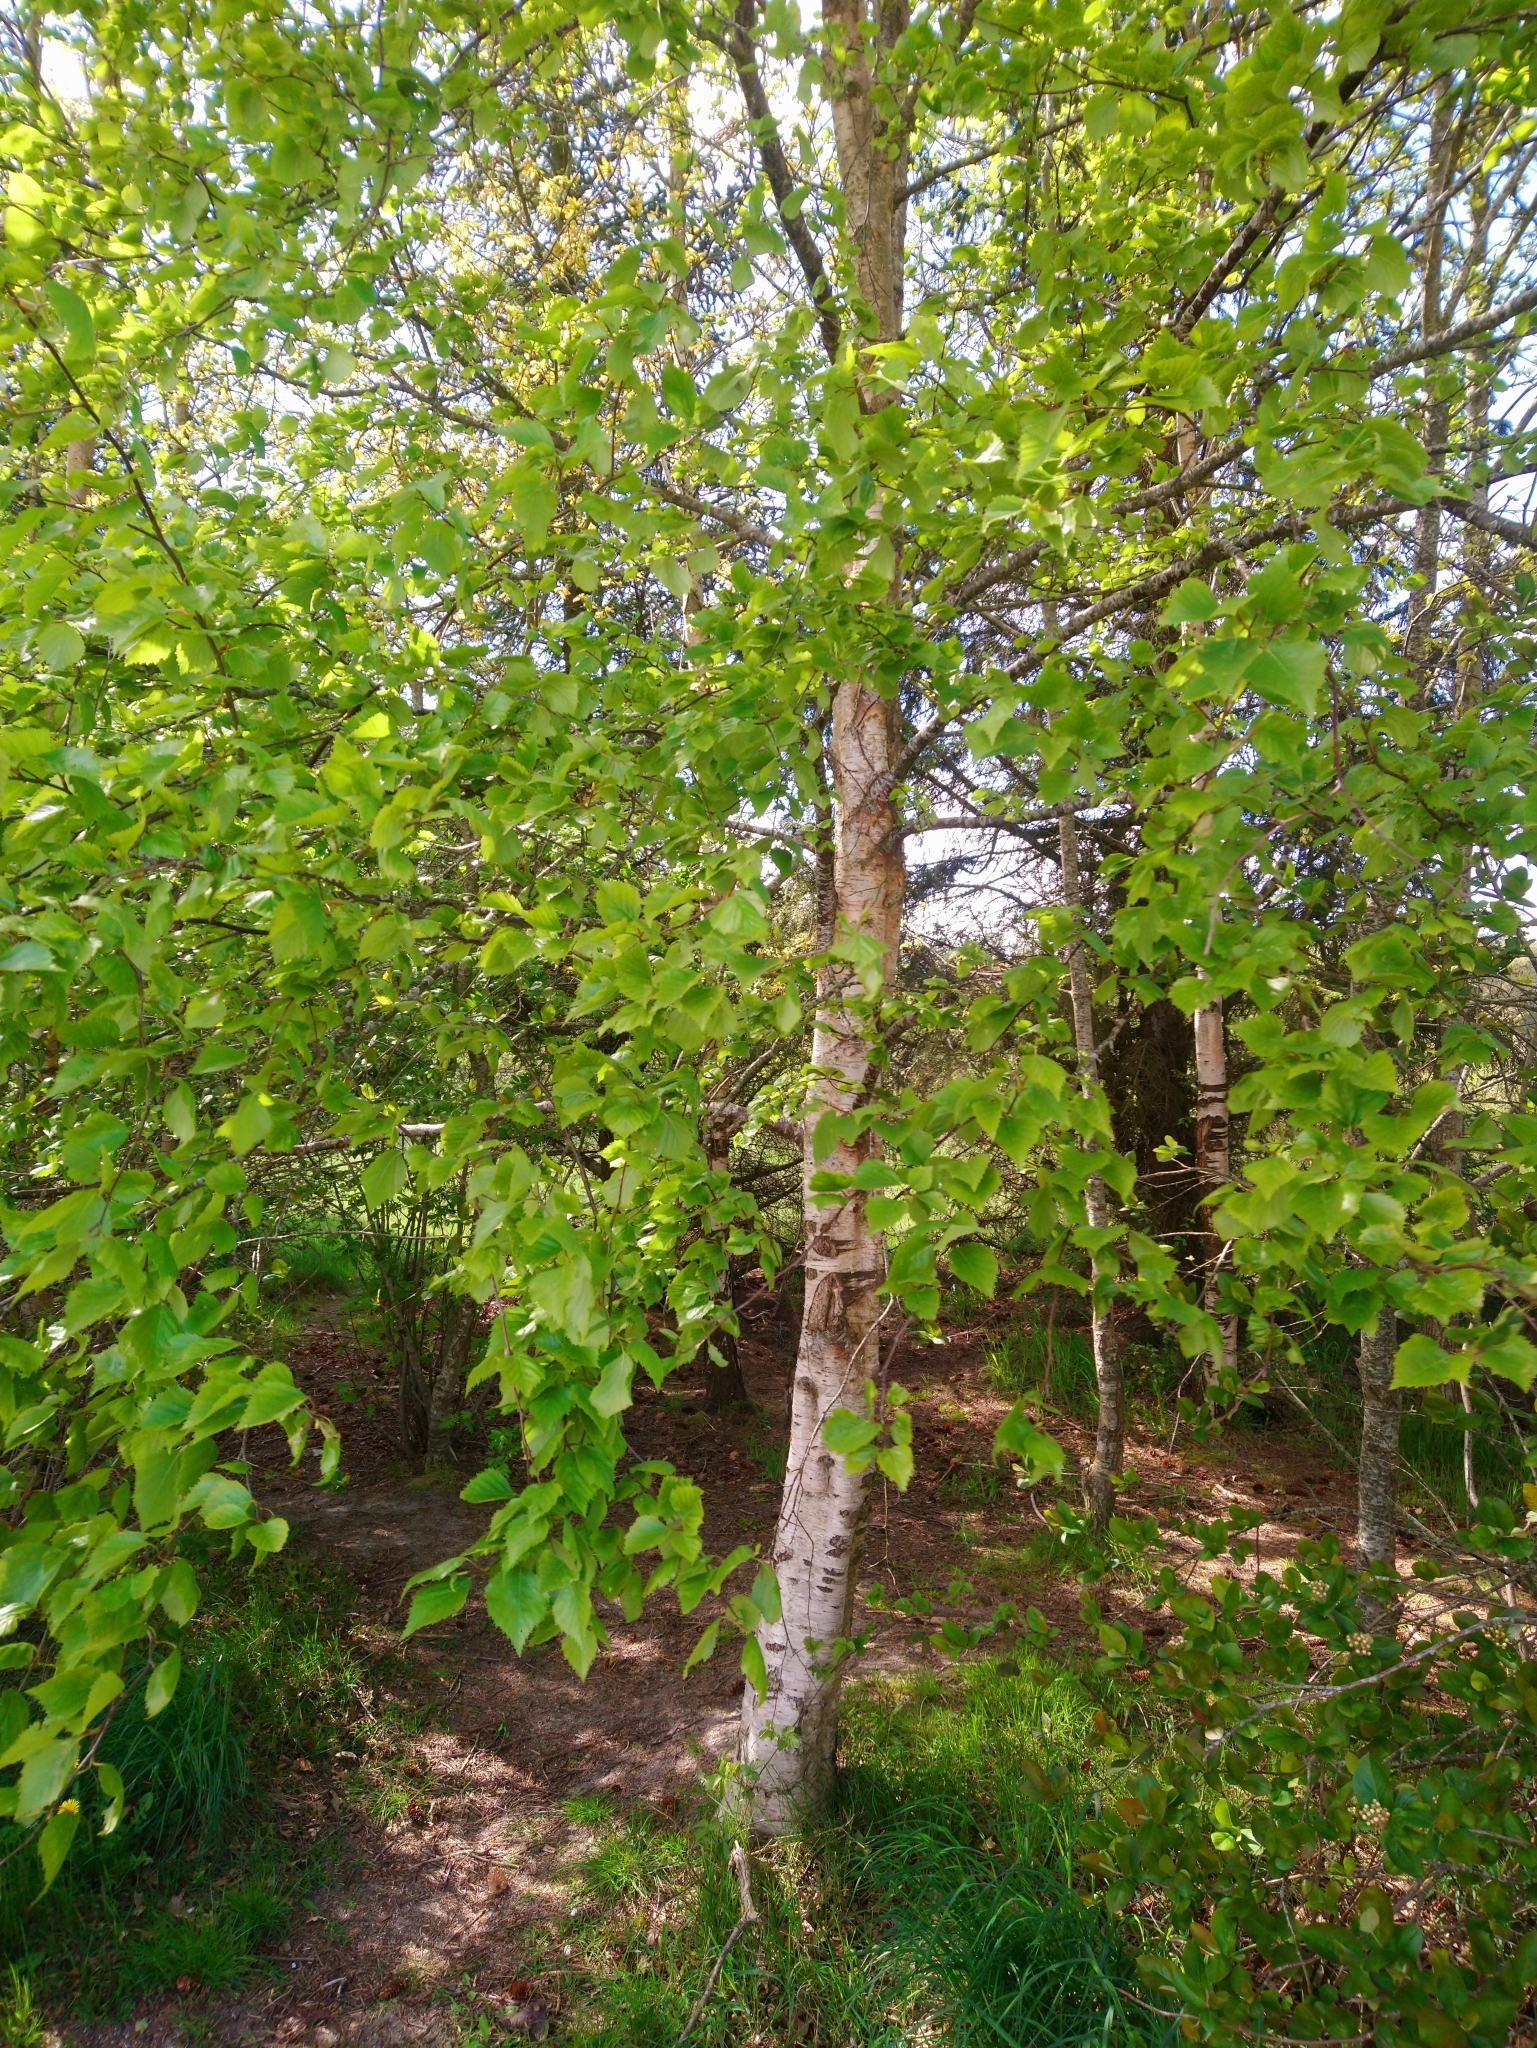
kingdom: Plantae
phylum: Tracheophyta
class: Magnoliopsida
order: Fagales
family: Betulaceae
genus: Betula
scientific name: Betula pendula
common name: Silver birch
